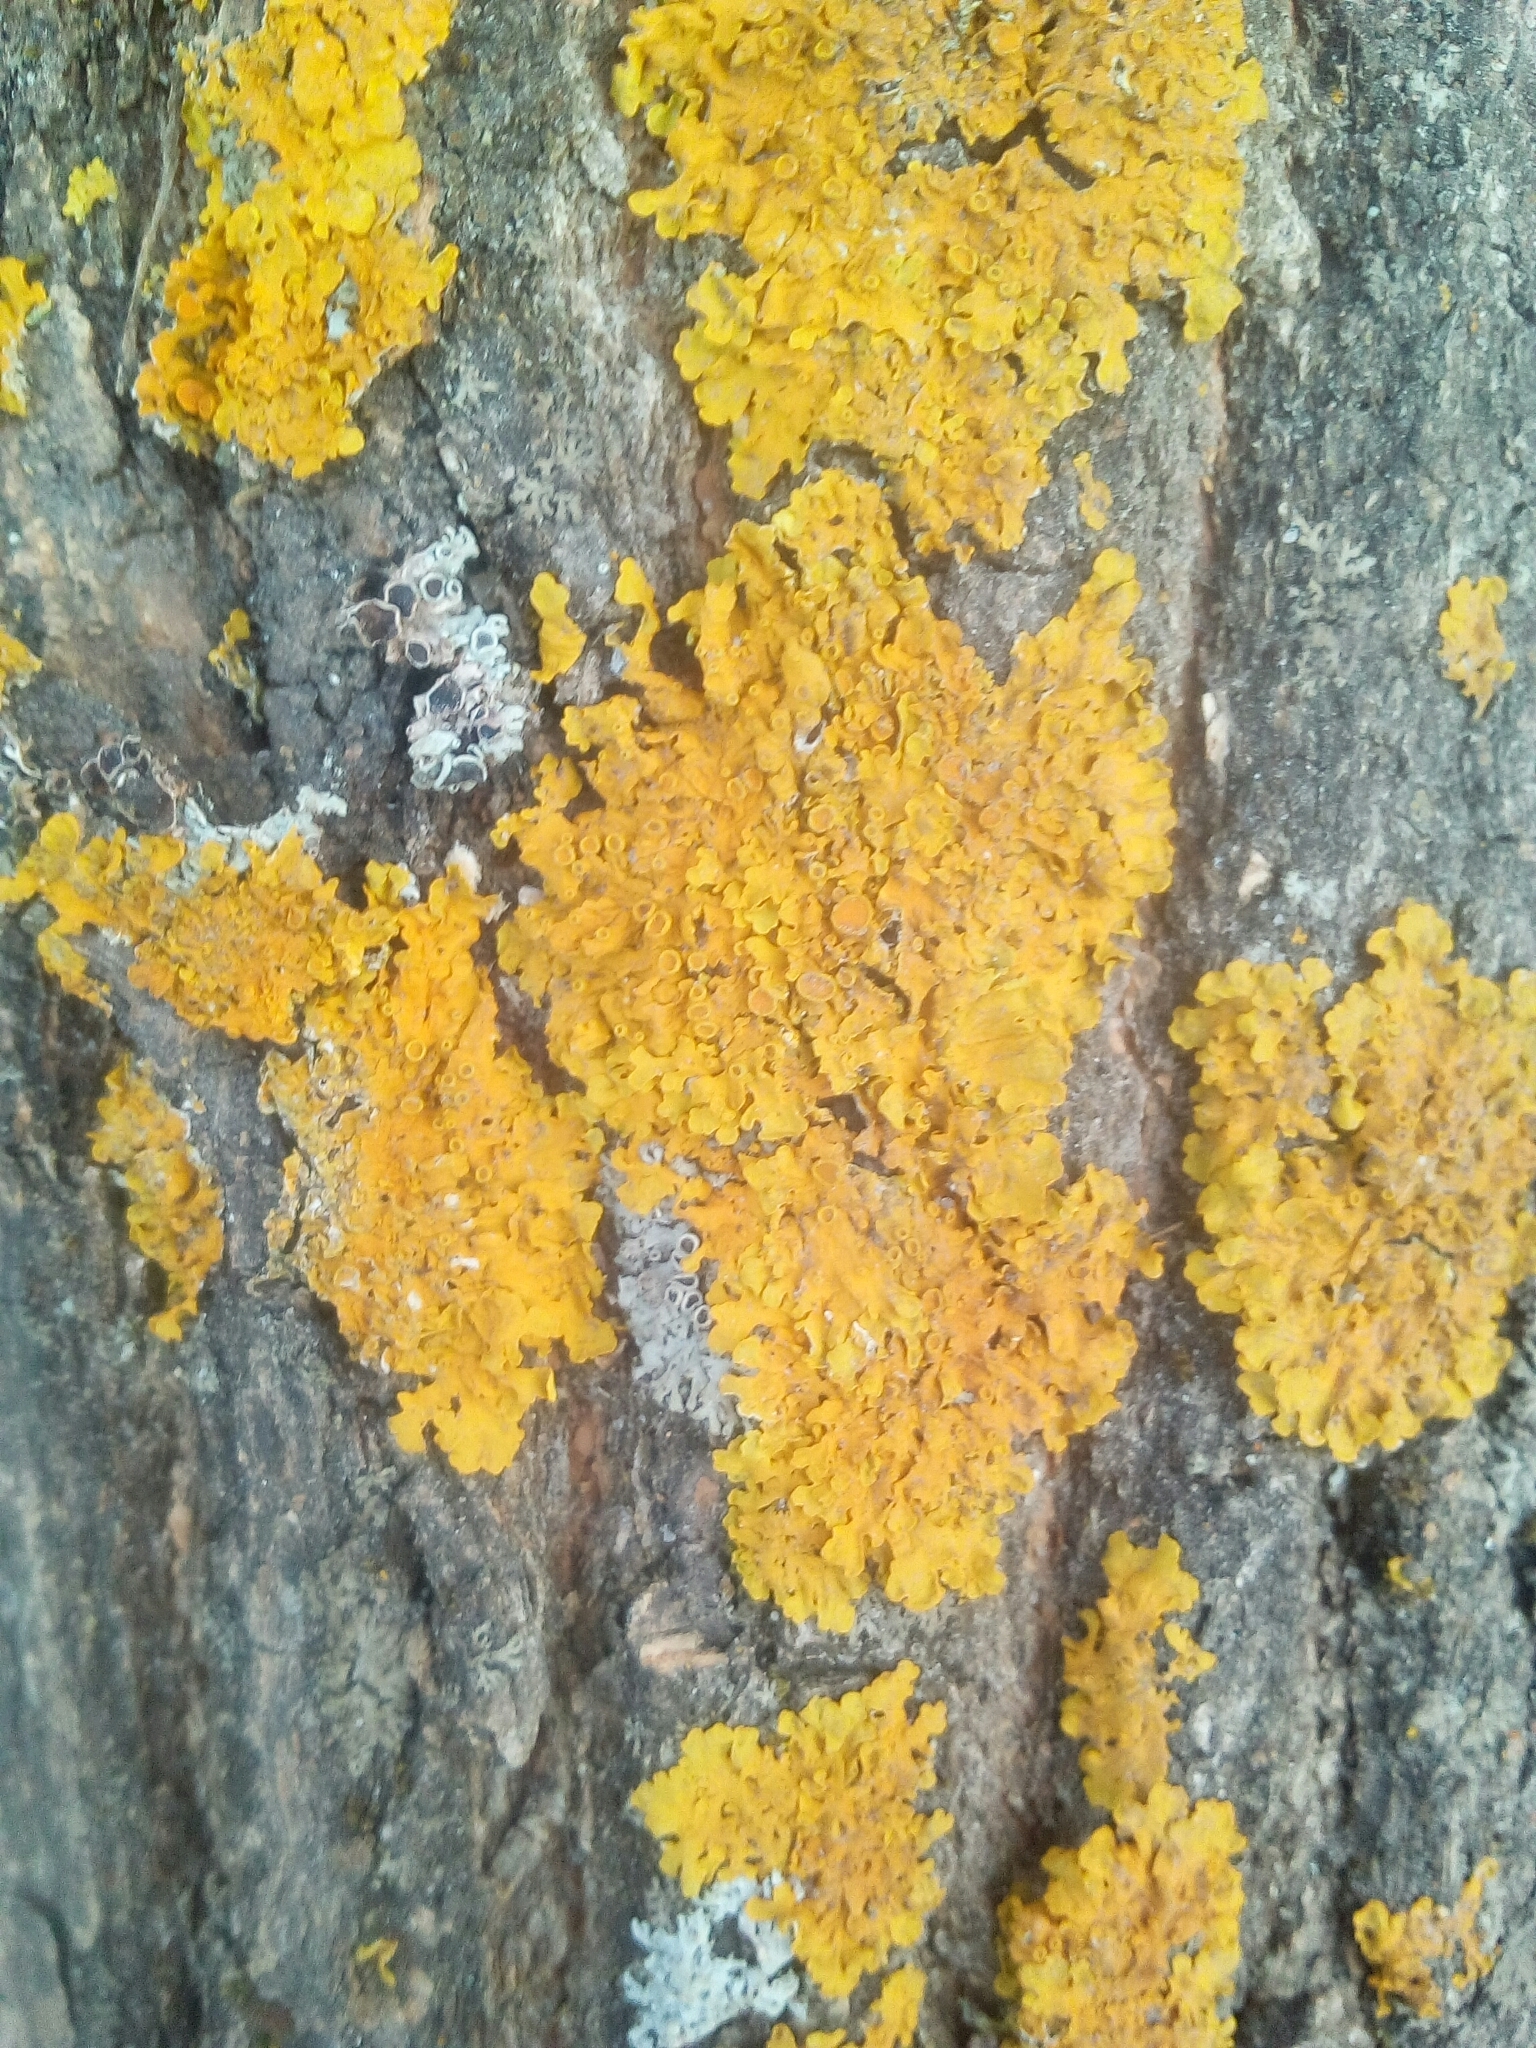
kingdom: Fungi
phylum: Ascomycota
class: Lecanoromycetes
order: Teloschistales
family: Teloschistaceae
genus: Xanthoria
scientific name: Xanthoria parietina
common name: Common orange lichen
